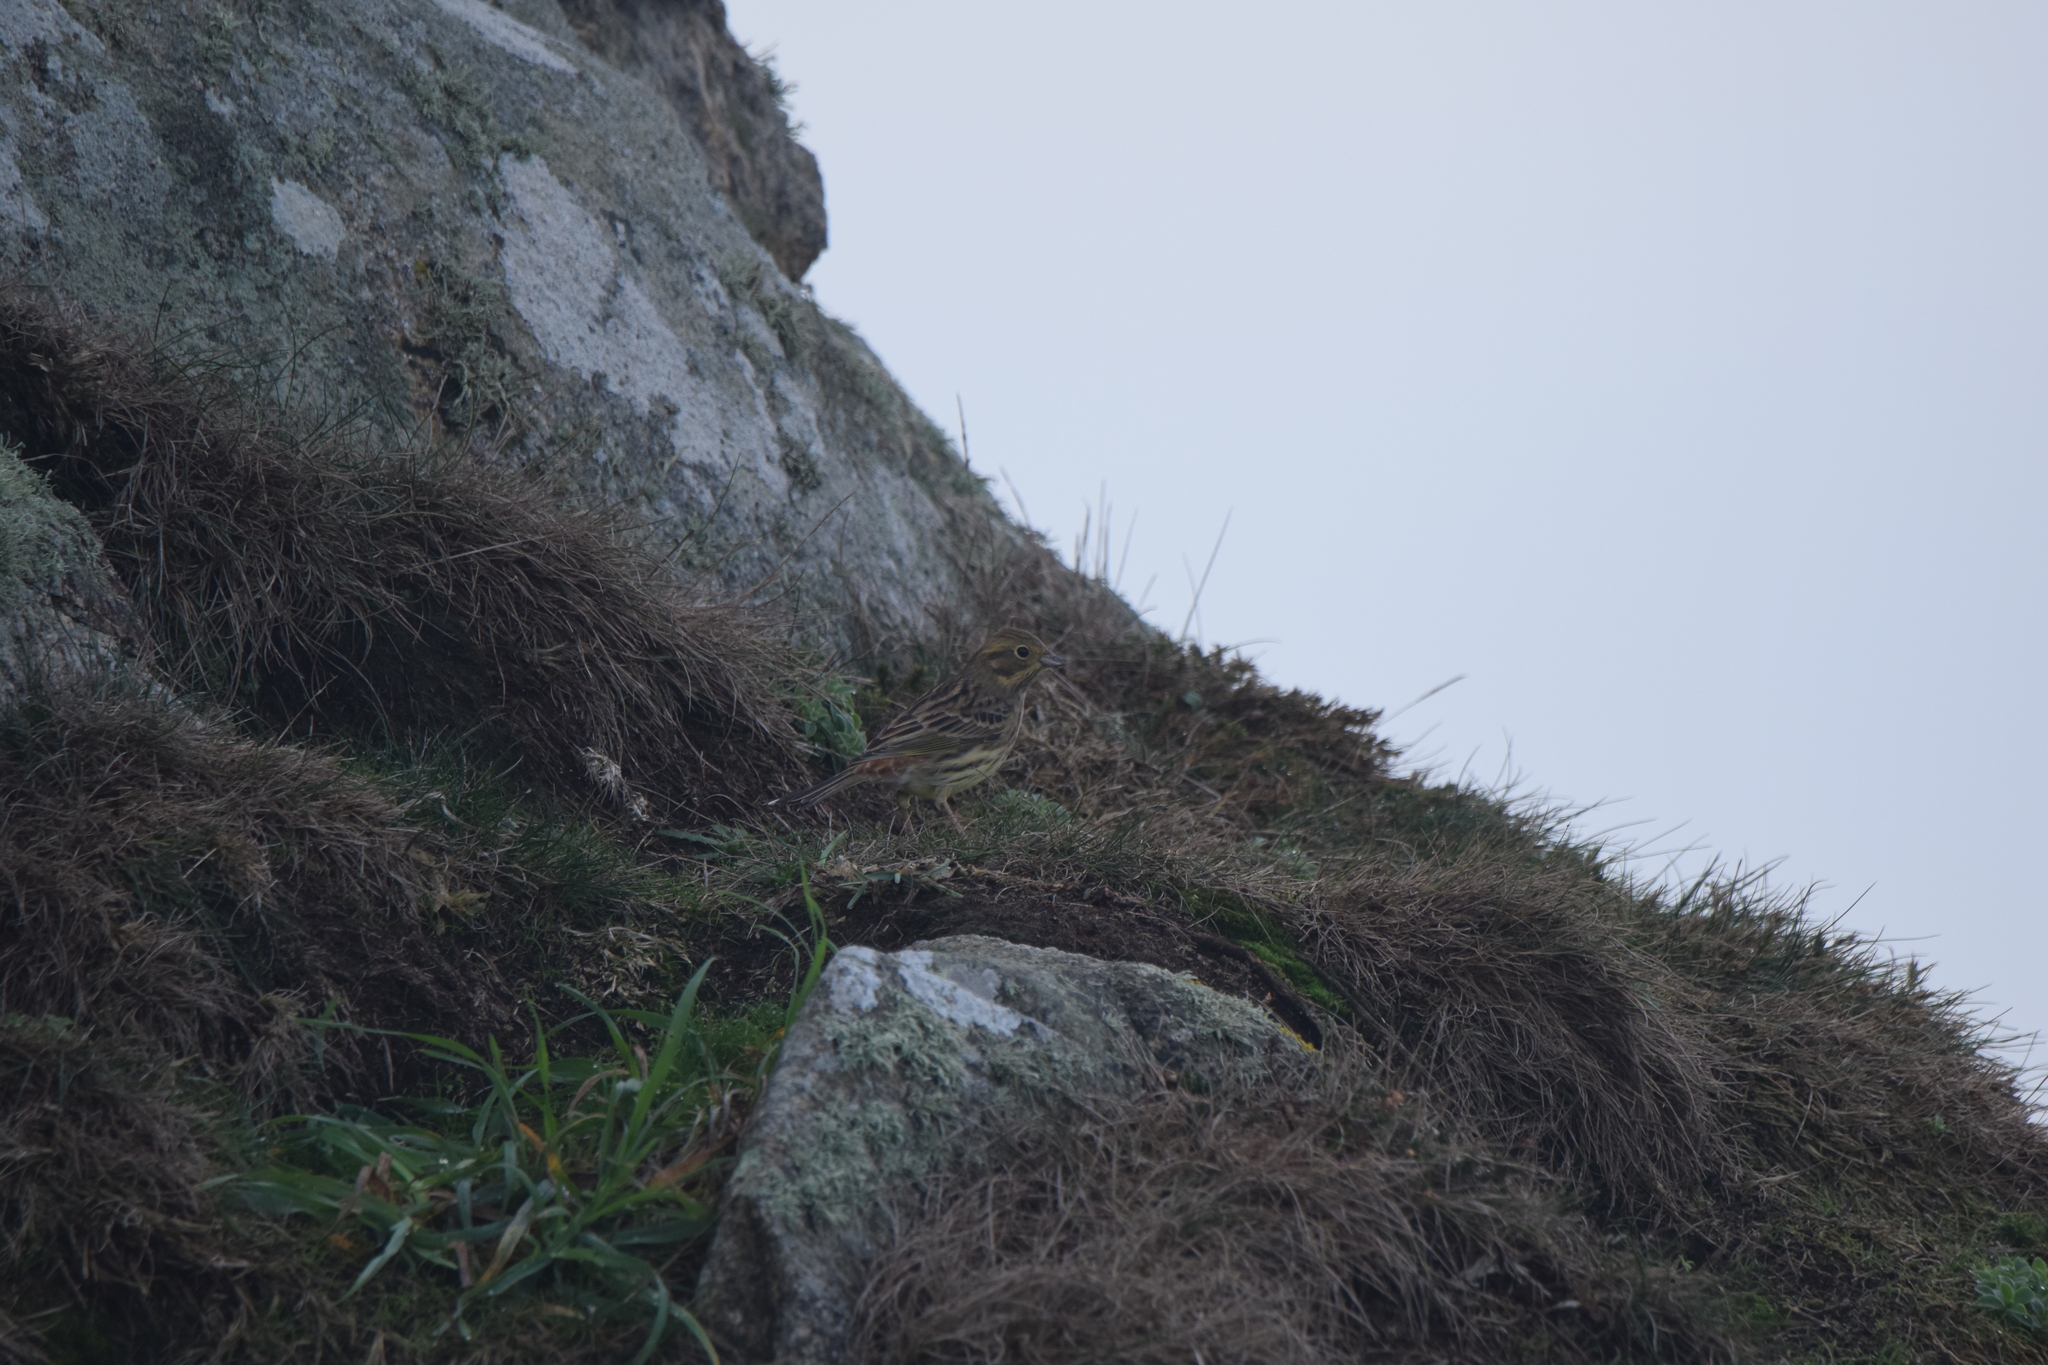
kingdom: Animalia
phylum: Chordata
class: Aves
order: Passeriformes
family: Emberizidae
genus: Emberiza
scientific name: Emberiza cirlus
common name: Cirl bunting
